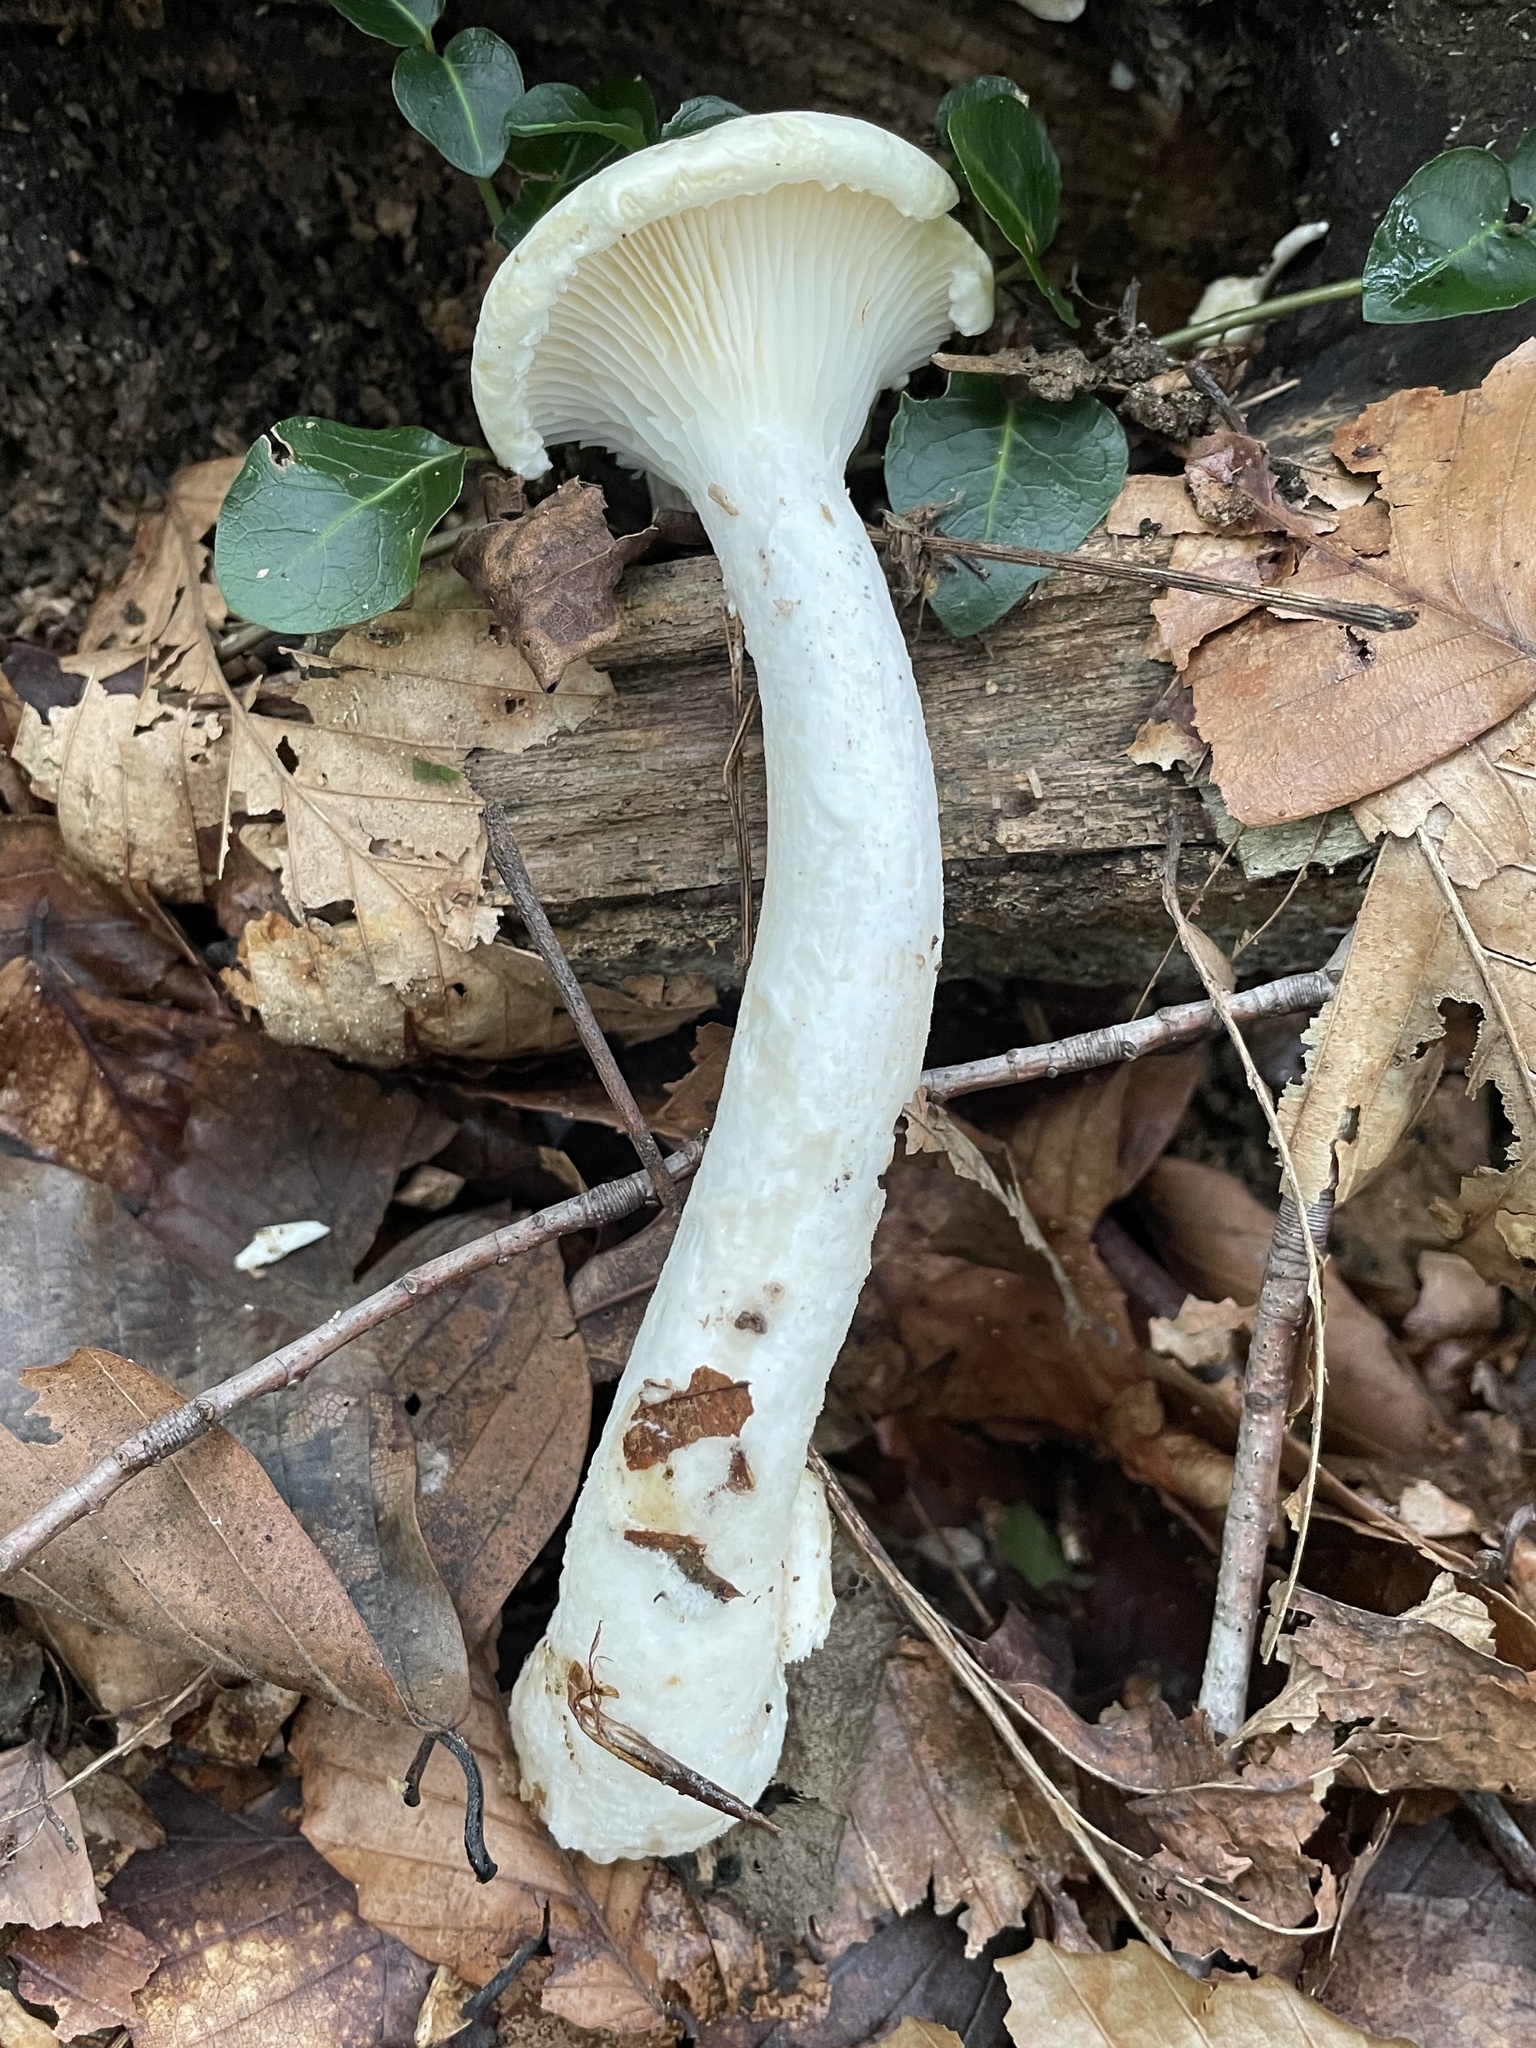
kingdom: Fungi
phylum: Basidiomycota
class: Agaricomycetes
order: Polyporales
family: Polyporaceae
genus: Lentinus
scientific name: Lentinus levis
